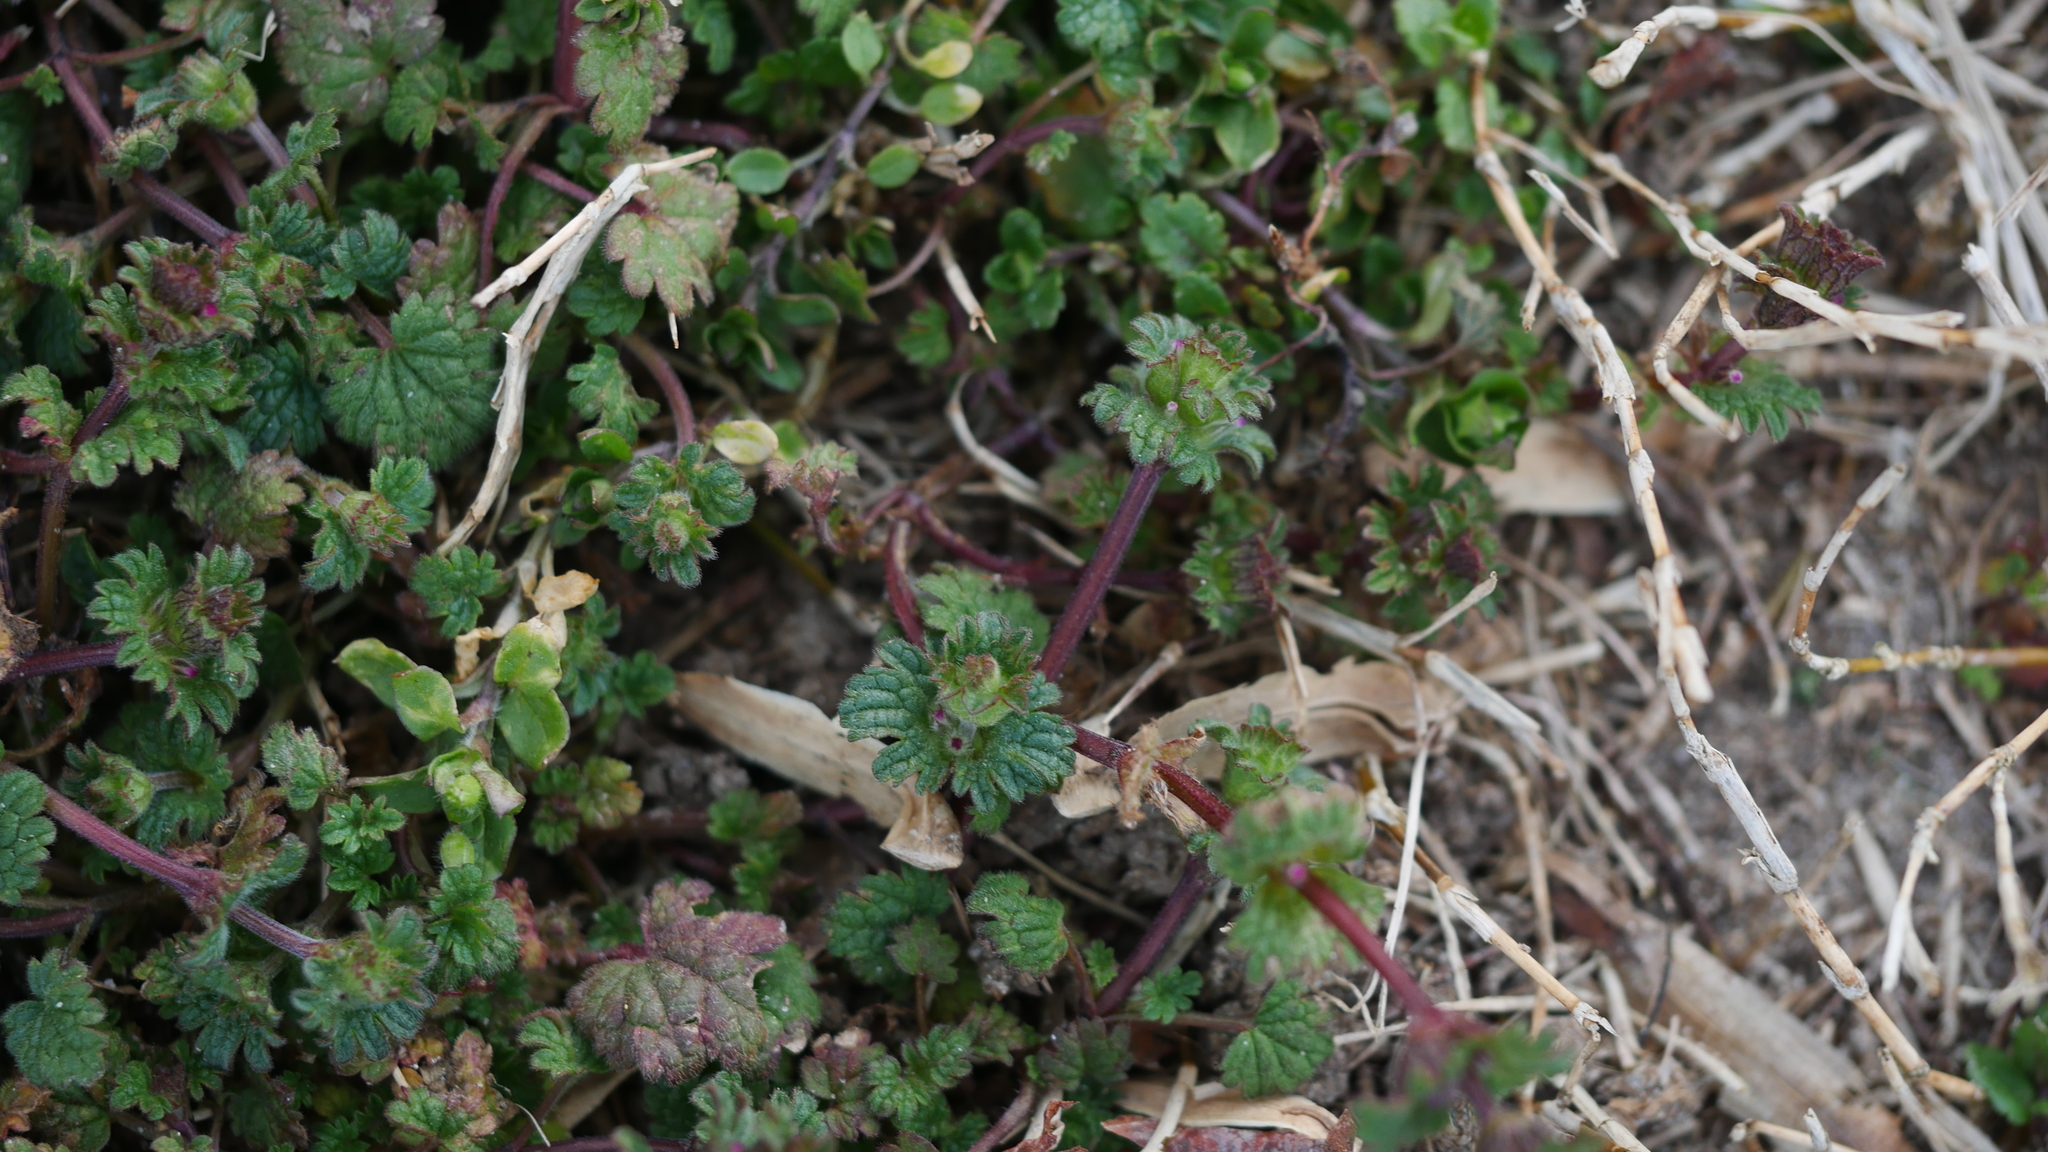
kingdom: Plantae
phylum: Tracheophyta
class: Magnoliopsida
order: Lamiales
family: Lamiaceae
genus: Lamium
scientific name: Lamium amplexicaule
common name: Henbit dead-nettle
